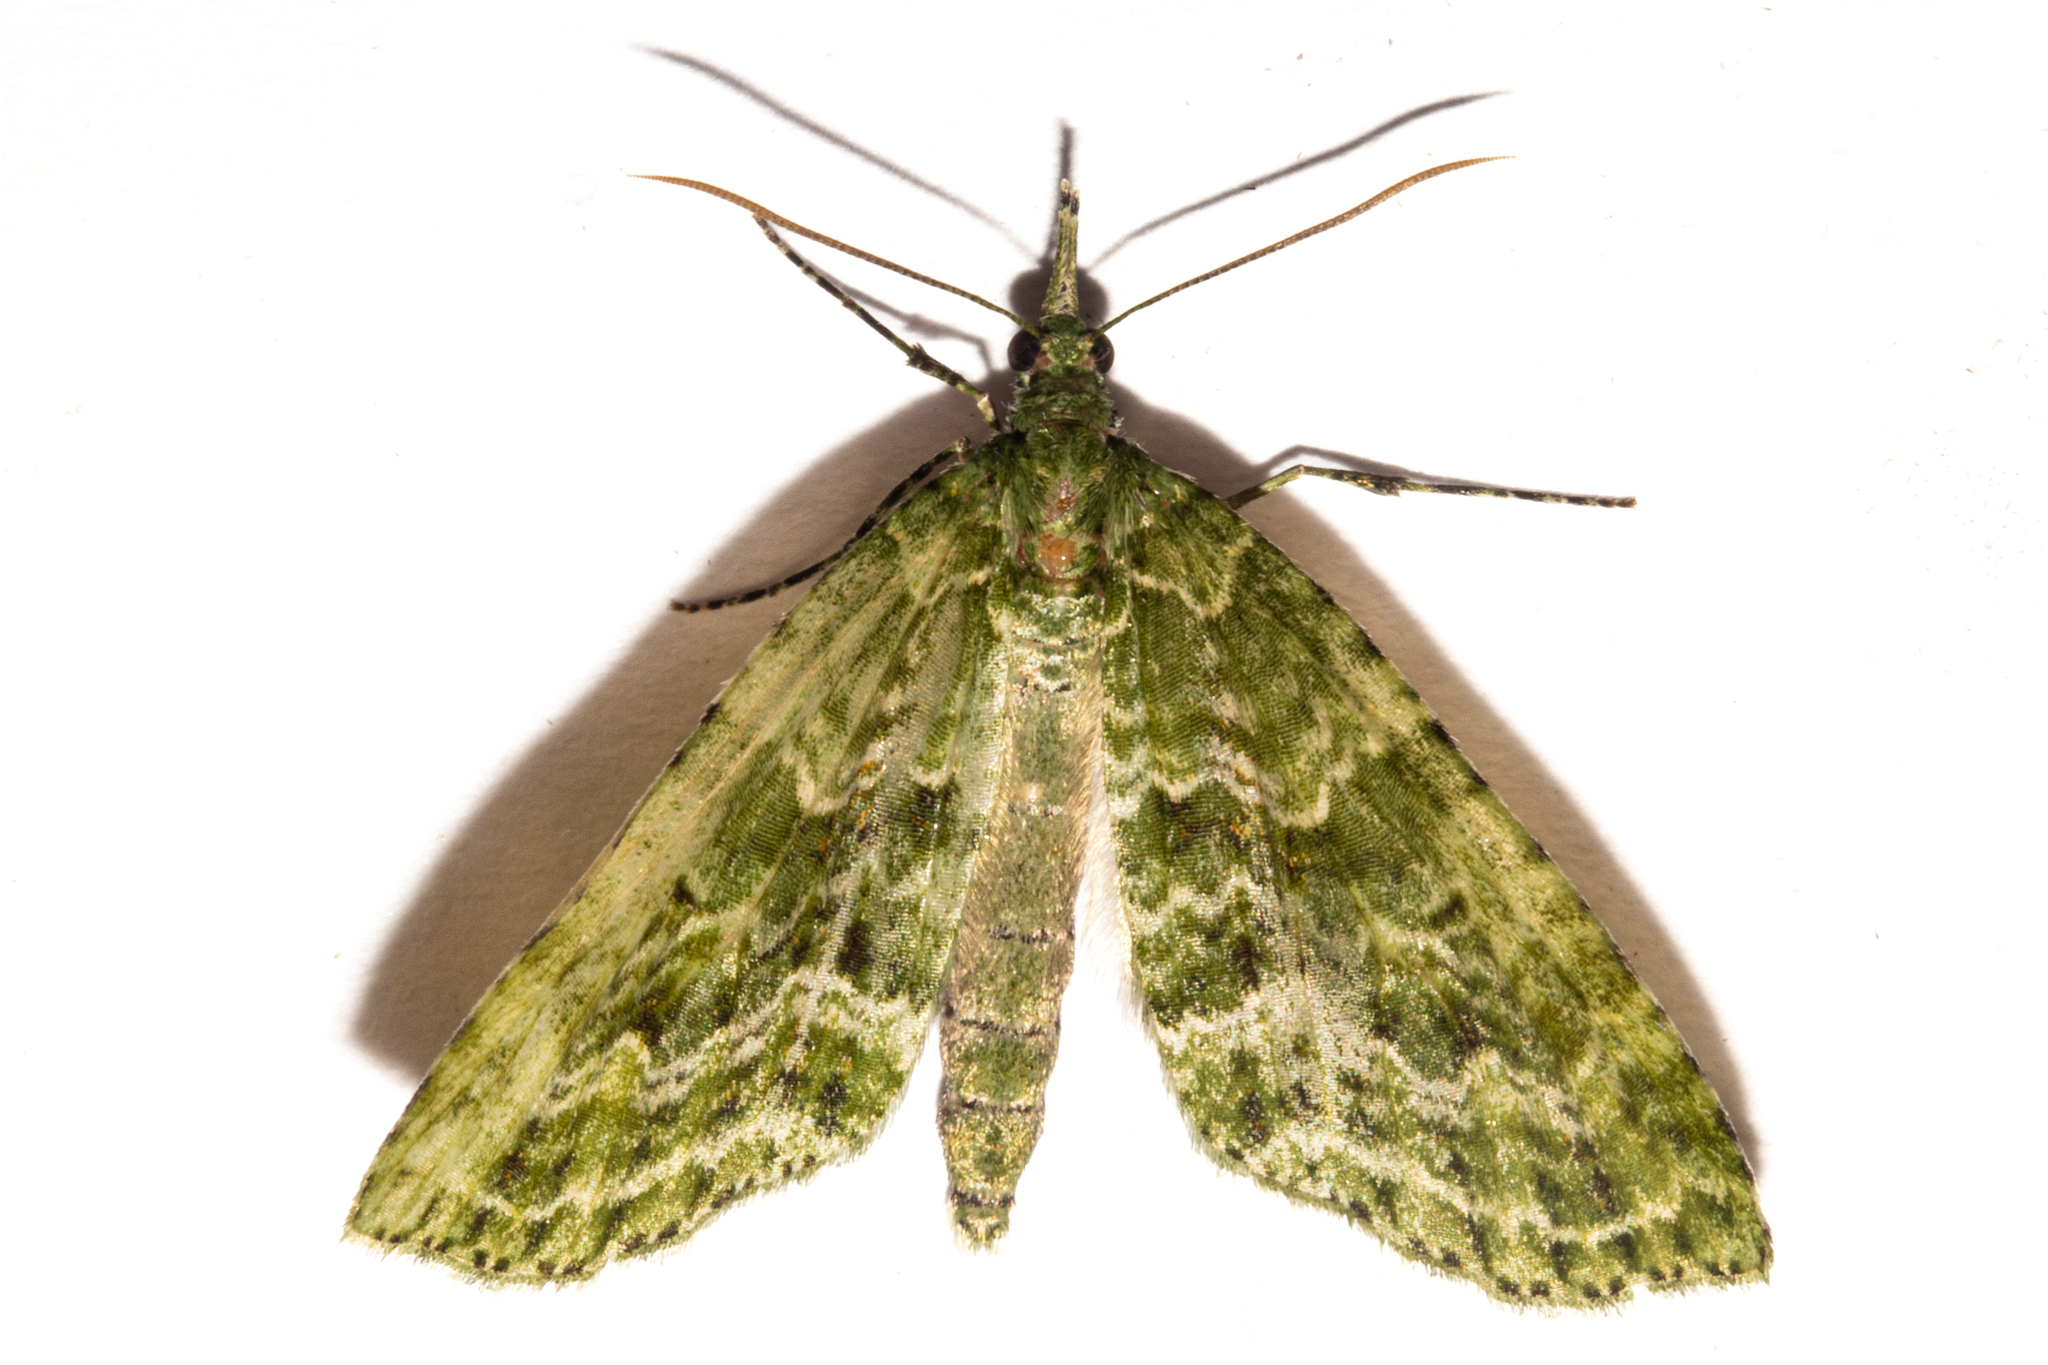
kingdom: Animalia
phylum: Arthropoda
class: Insecta
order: Lepidoptera
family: Geometridae
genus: Tatosoma
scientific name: Tatosoma tipulata
